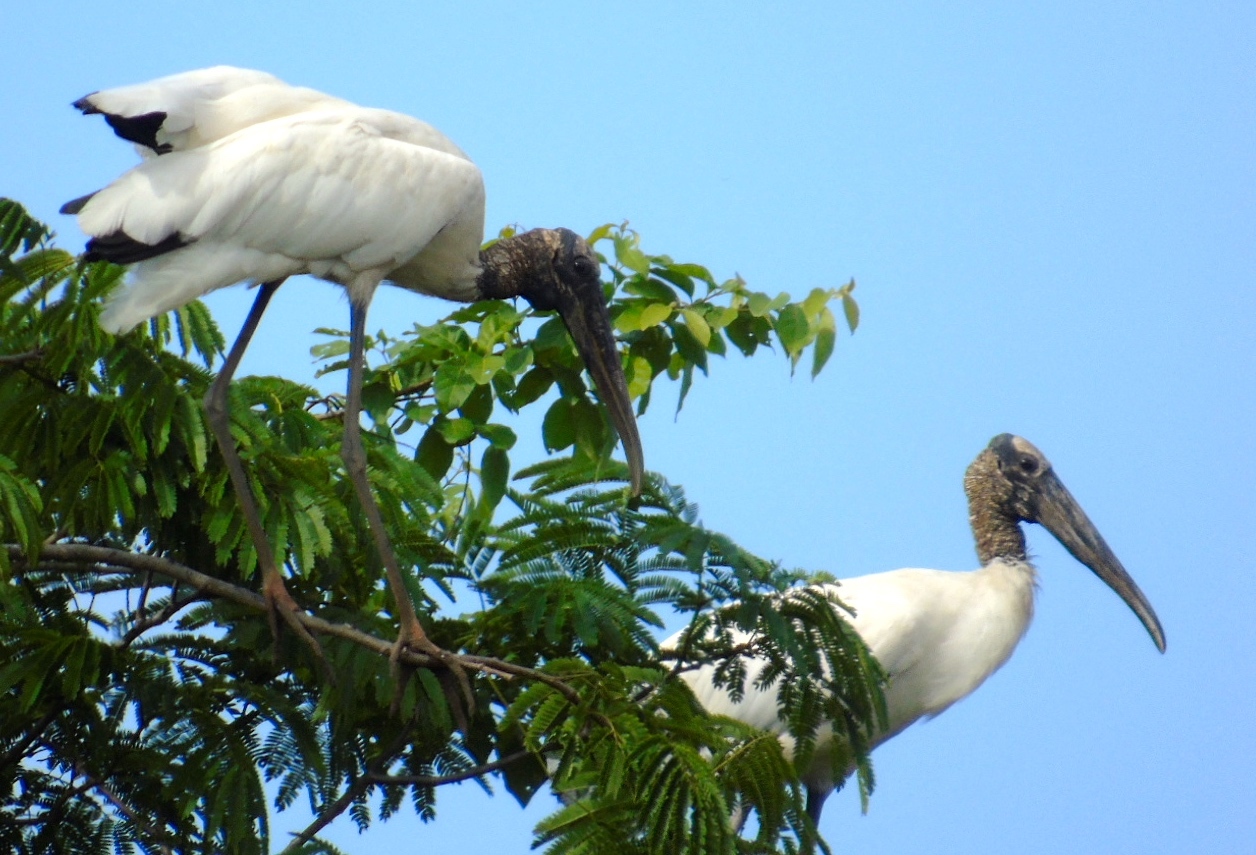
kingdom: Animalia
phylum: Chordata
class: Aves
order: Ciconiiformes
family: Ciconiidae
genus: Mycteria
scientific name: Mycteria americana
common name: Wood stork
